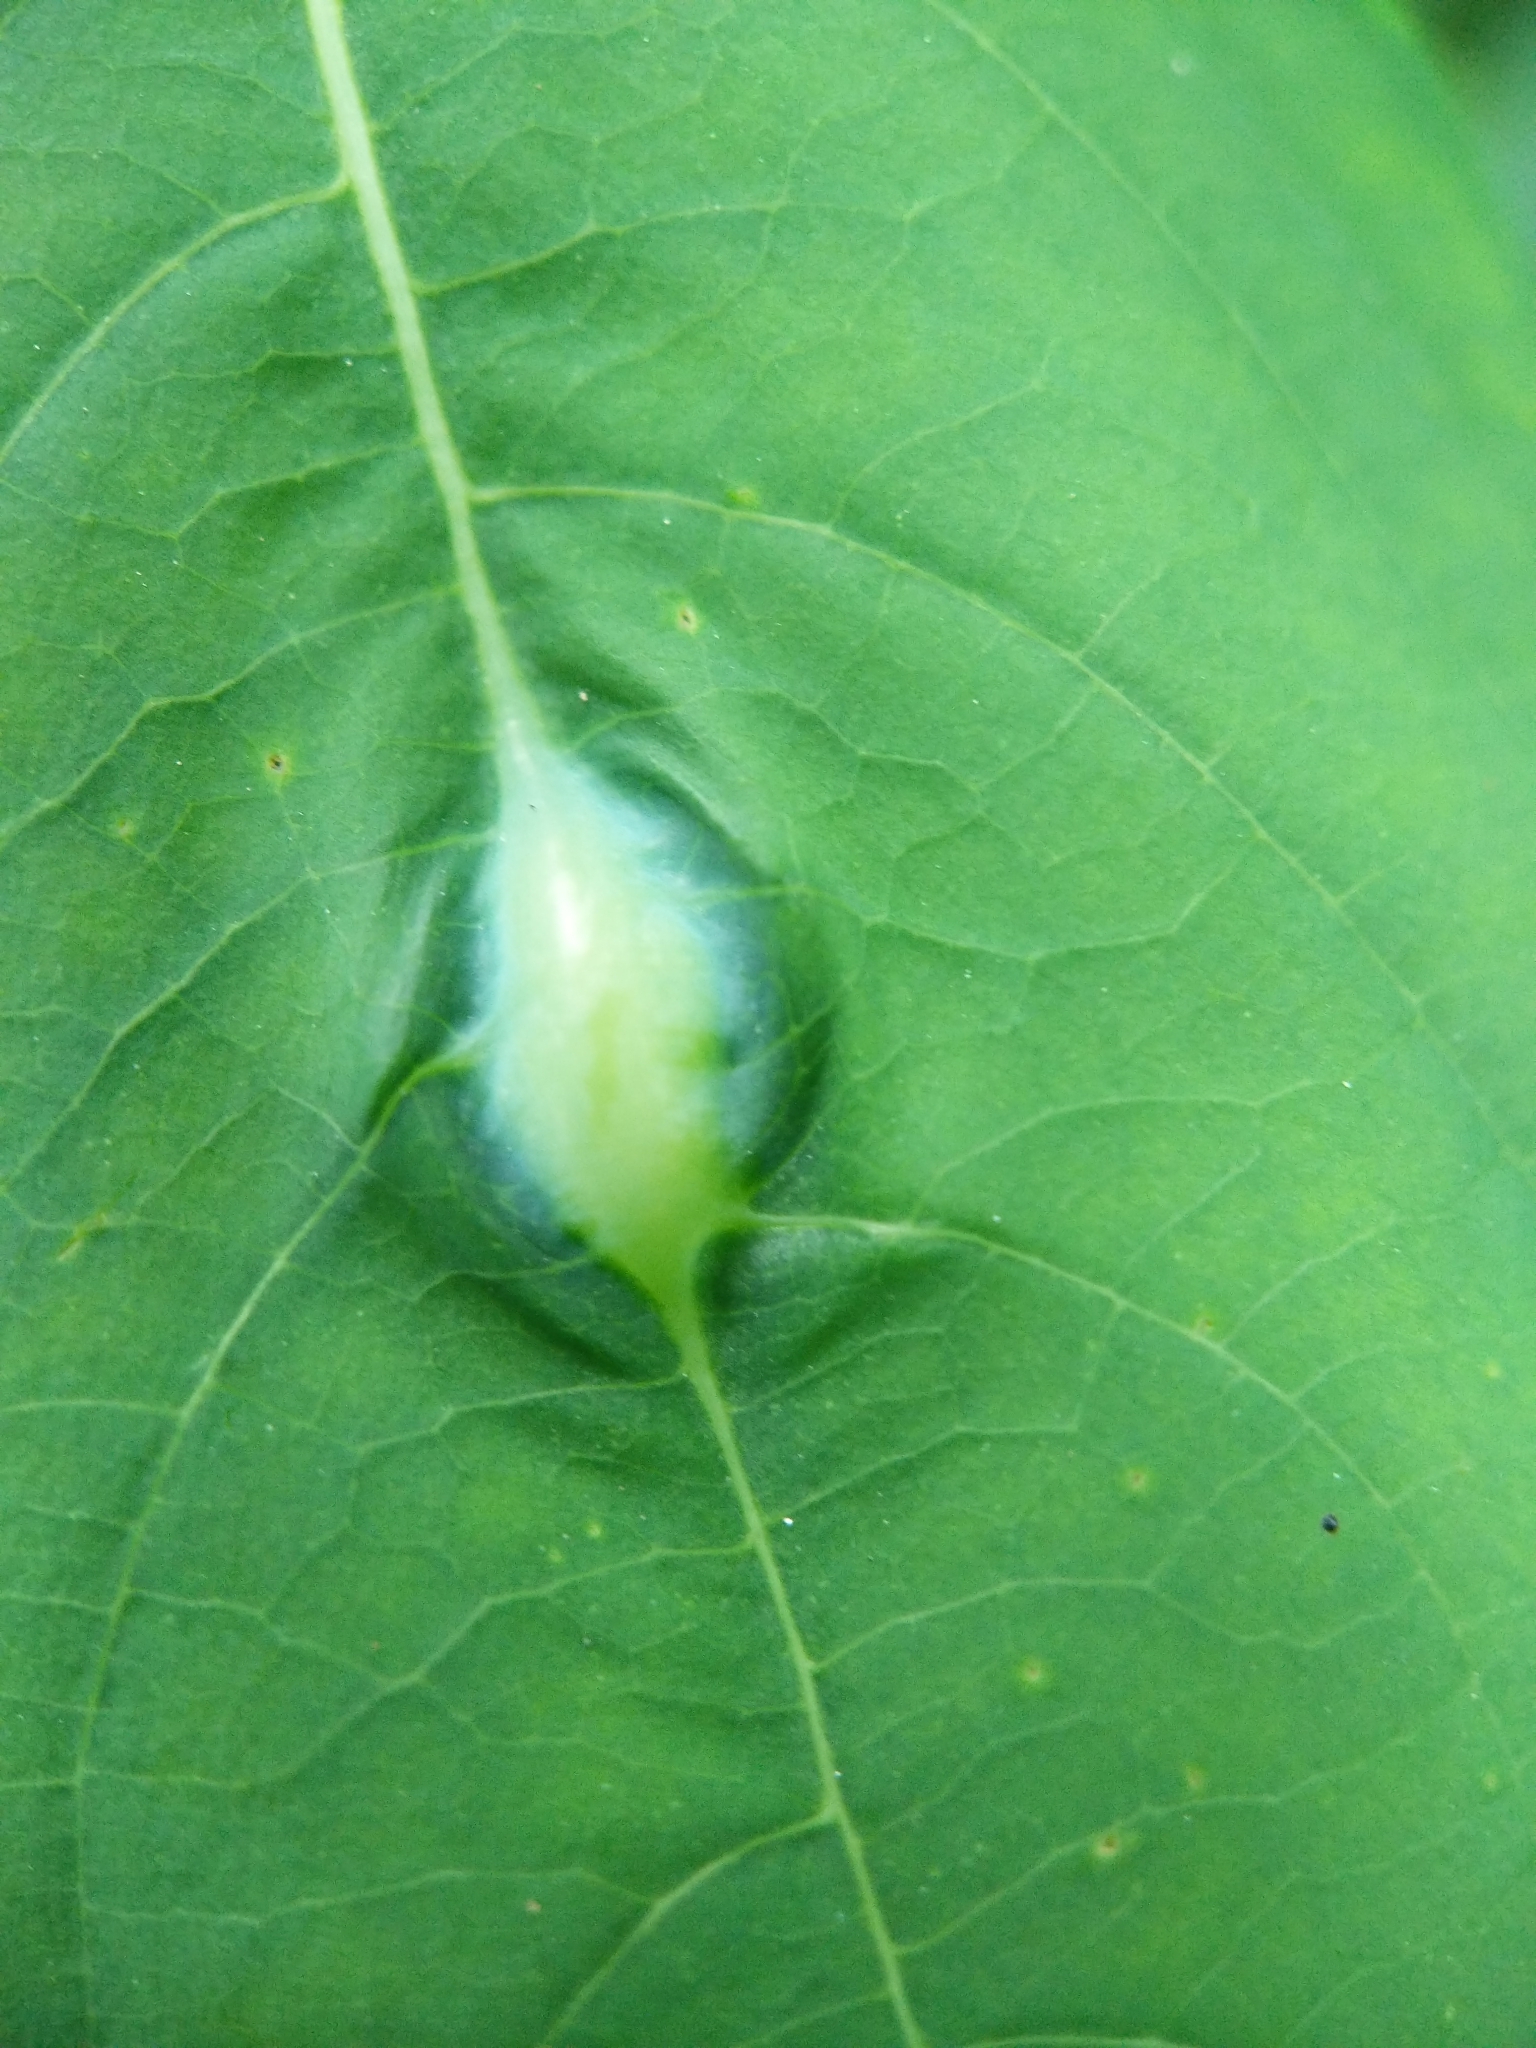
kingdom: Animalia
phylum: Arthropoda
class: Insecta
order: Diptera
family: Cecidomyiidae
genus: Neolasioptera
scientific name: Neolasioptera impatientifolia
